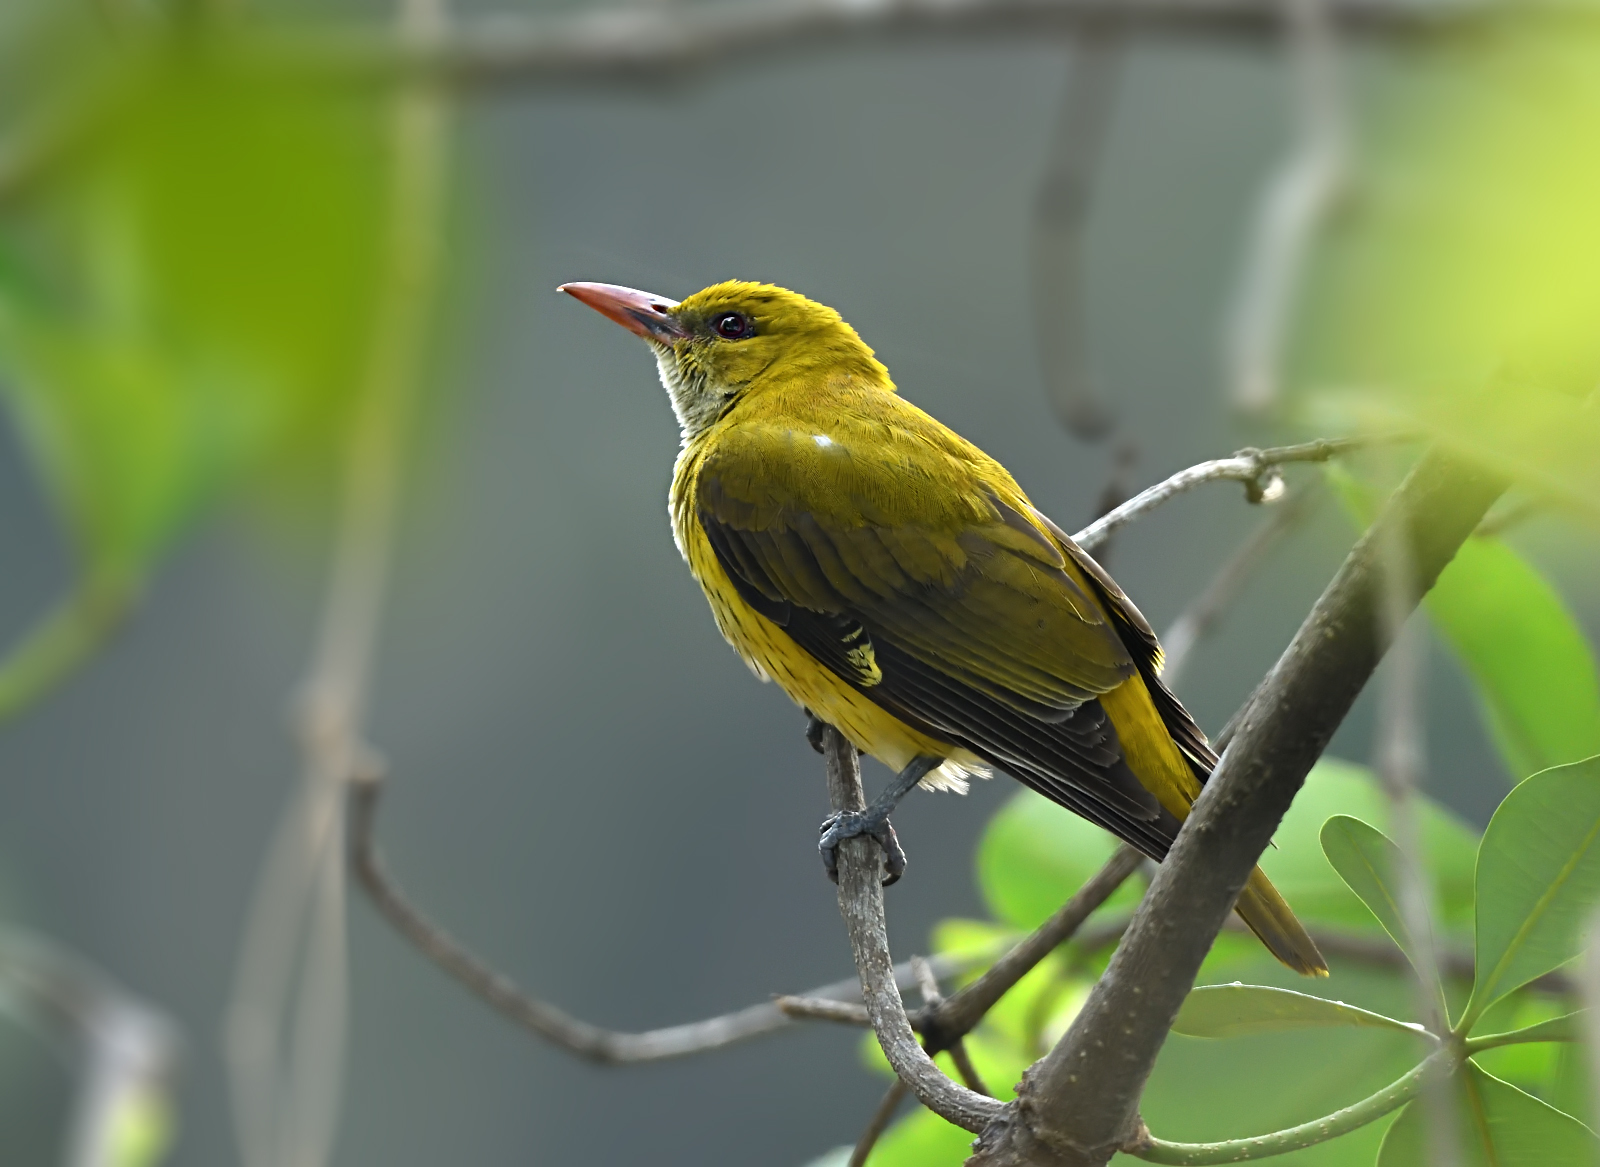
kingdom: Animalia
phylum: Chordata
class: Aves
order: Passeriformes
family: Oriolidae
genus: Oriolus
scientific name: Oriolus kundoo
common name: Indian golden oriole
